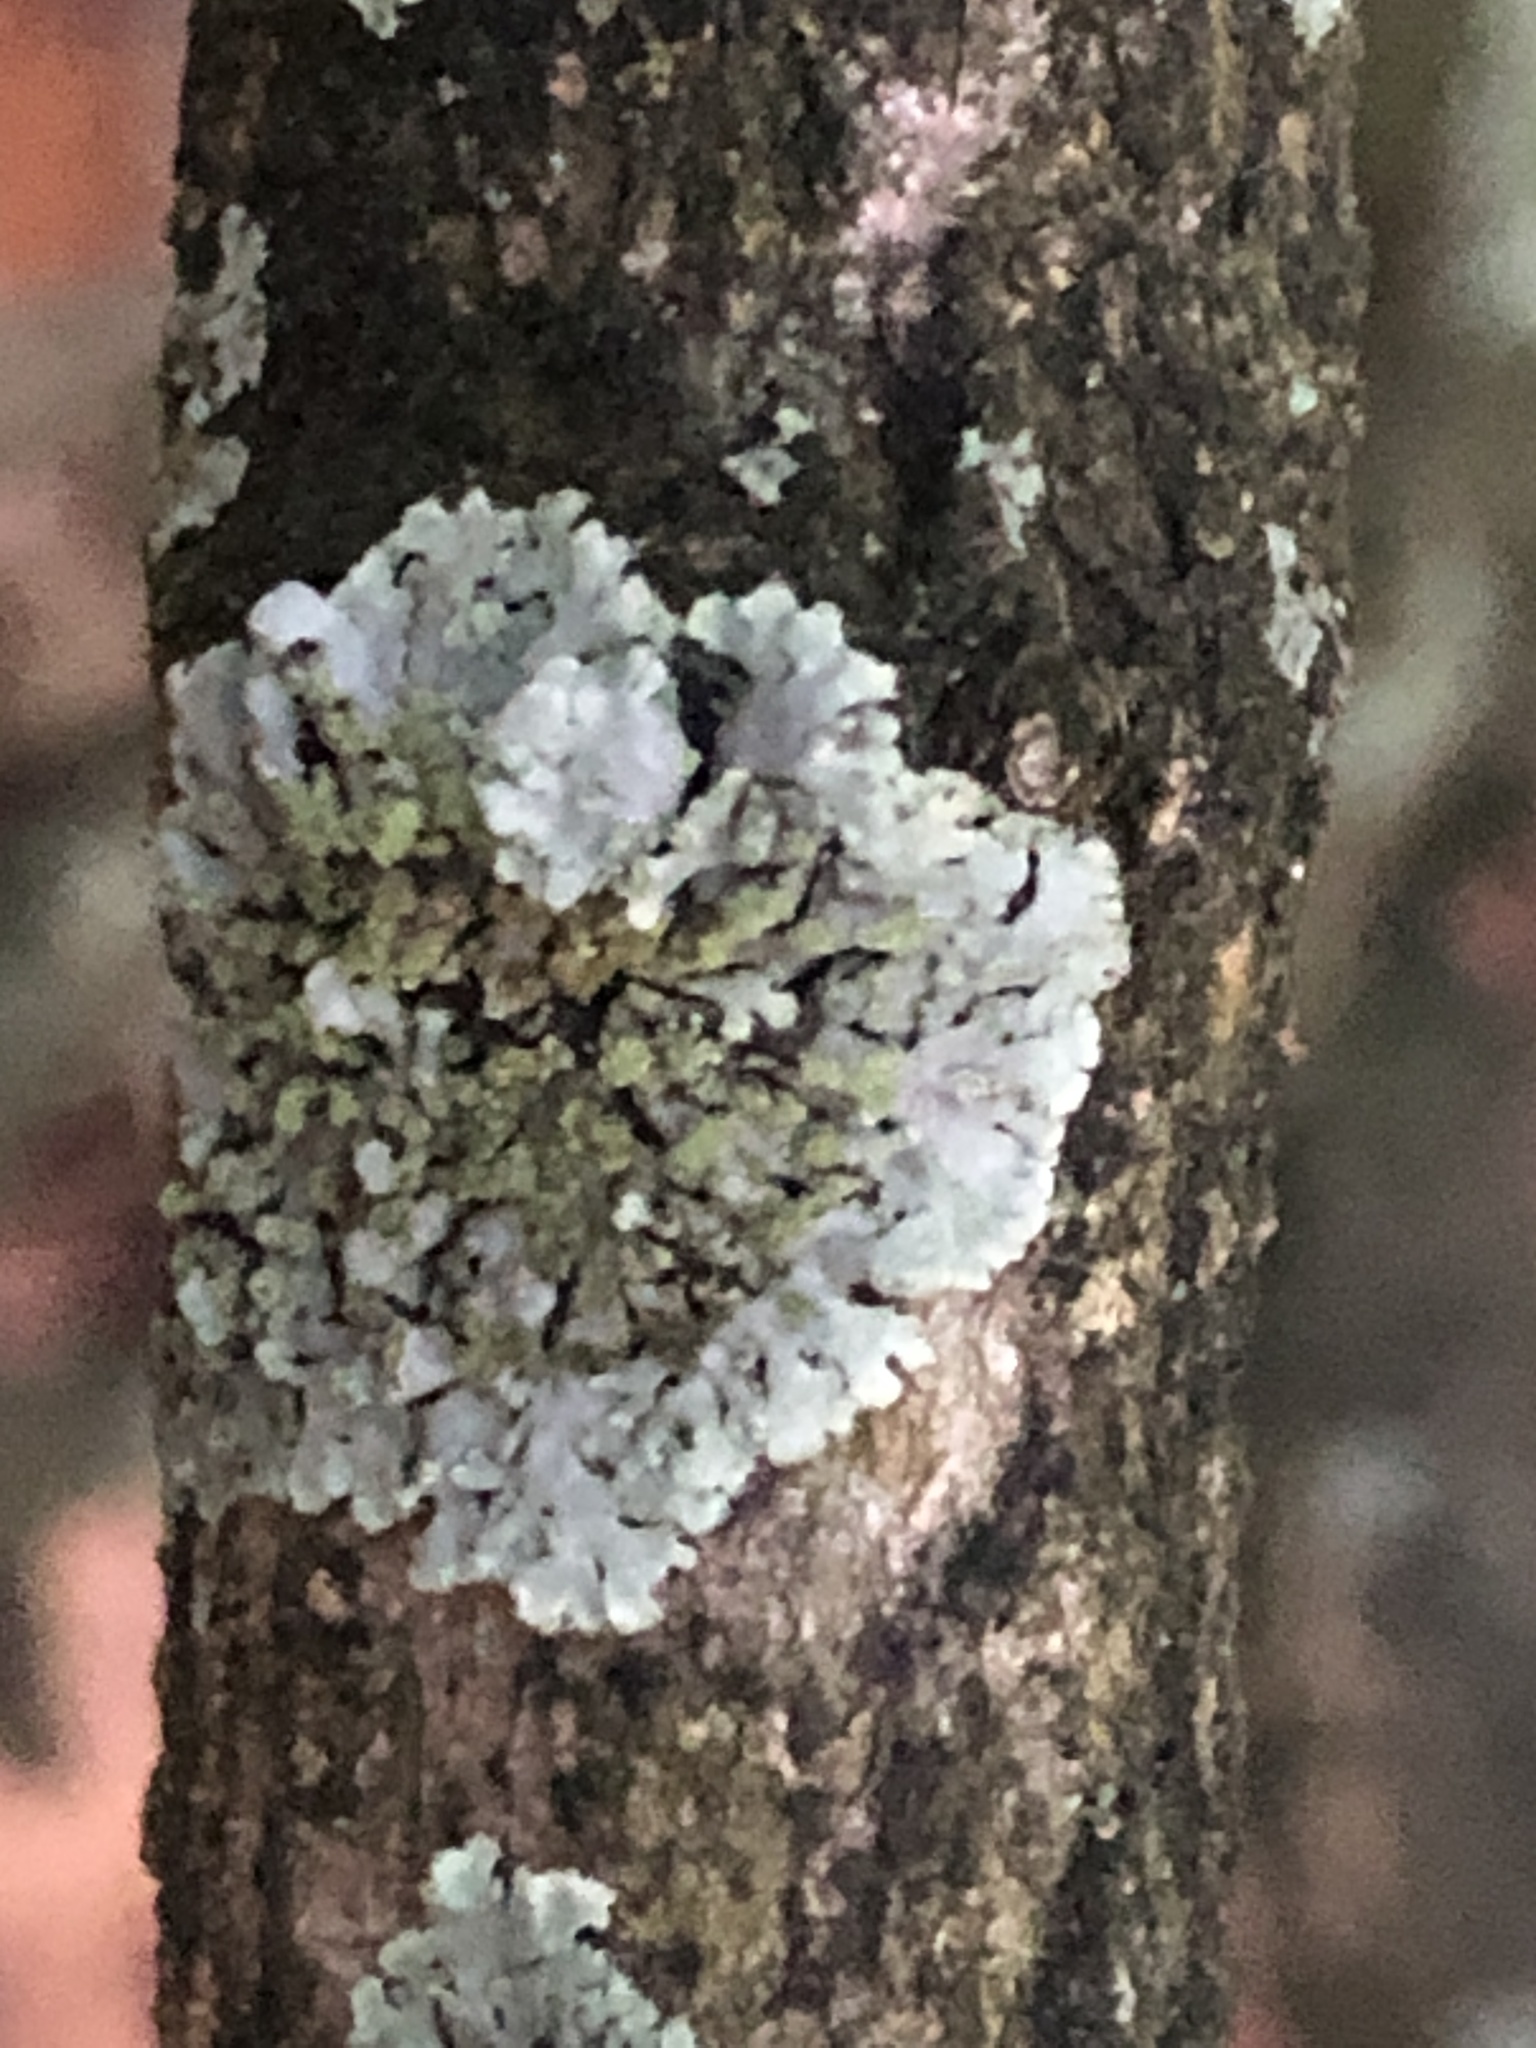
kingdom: Fungi
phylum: Ascomycota
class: Lecanoromycetes
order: Caliciales
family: Physciaceae
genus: Phaeophyscia
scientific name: Phaeophyscia orbicularis
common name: Mealy shadow lichen
